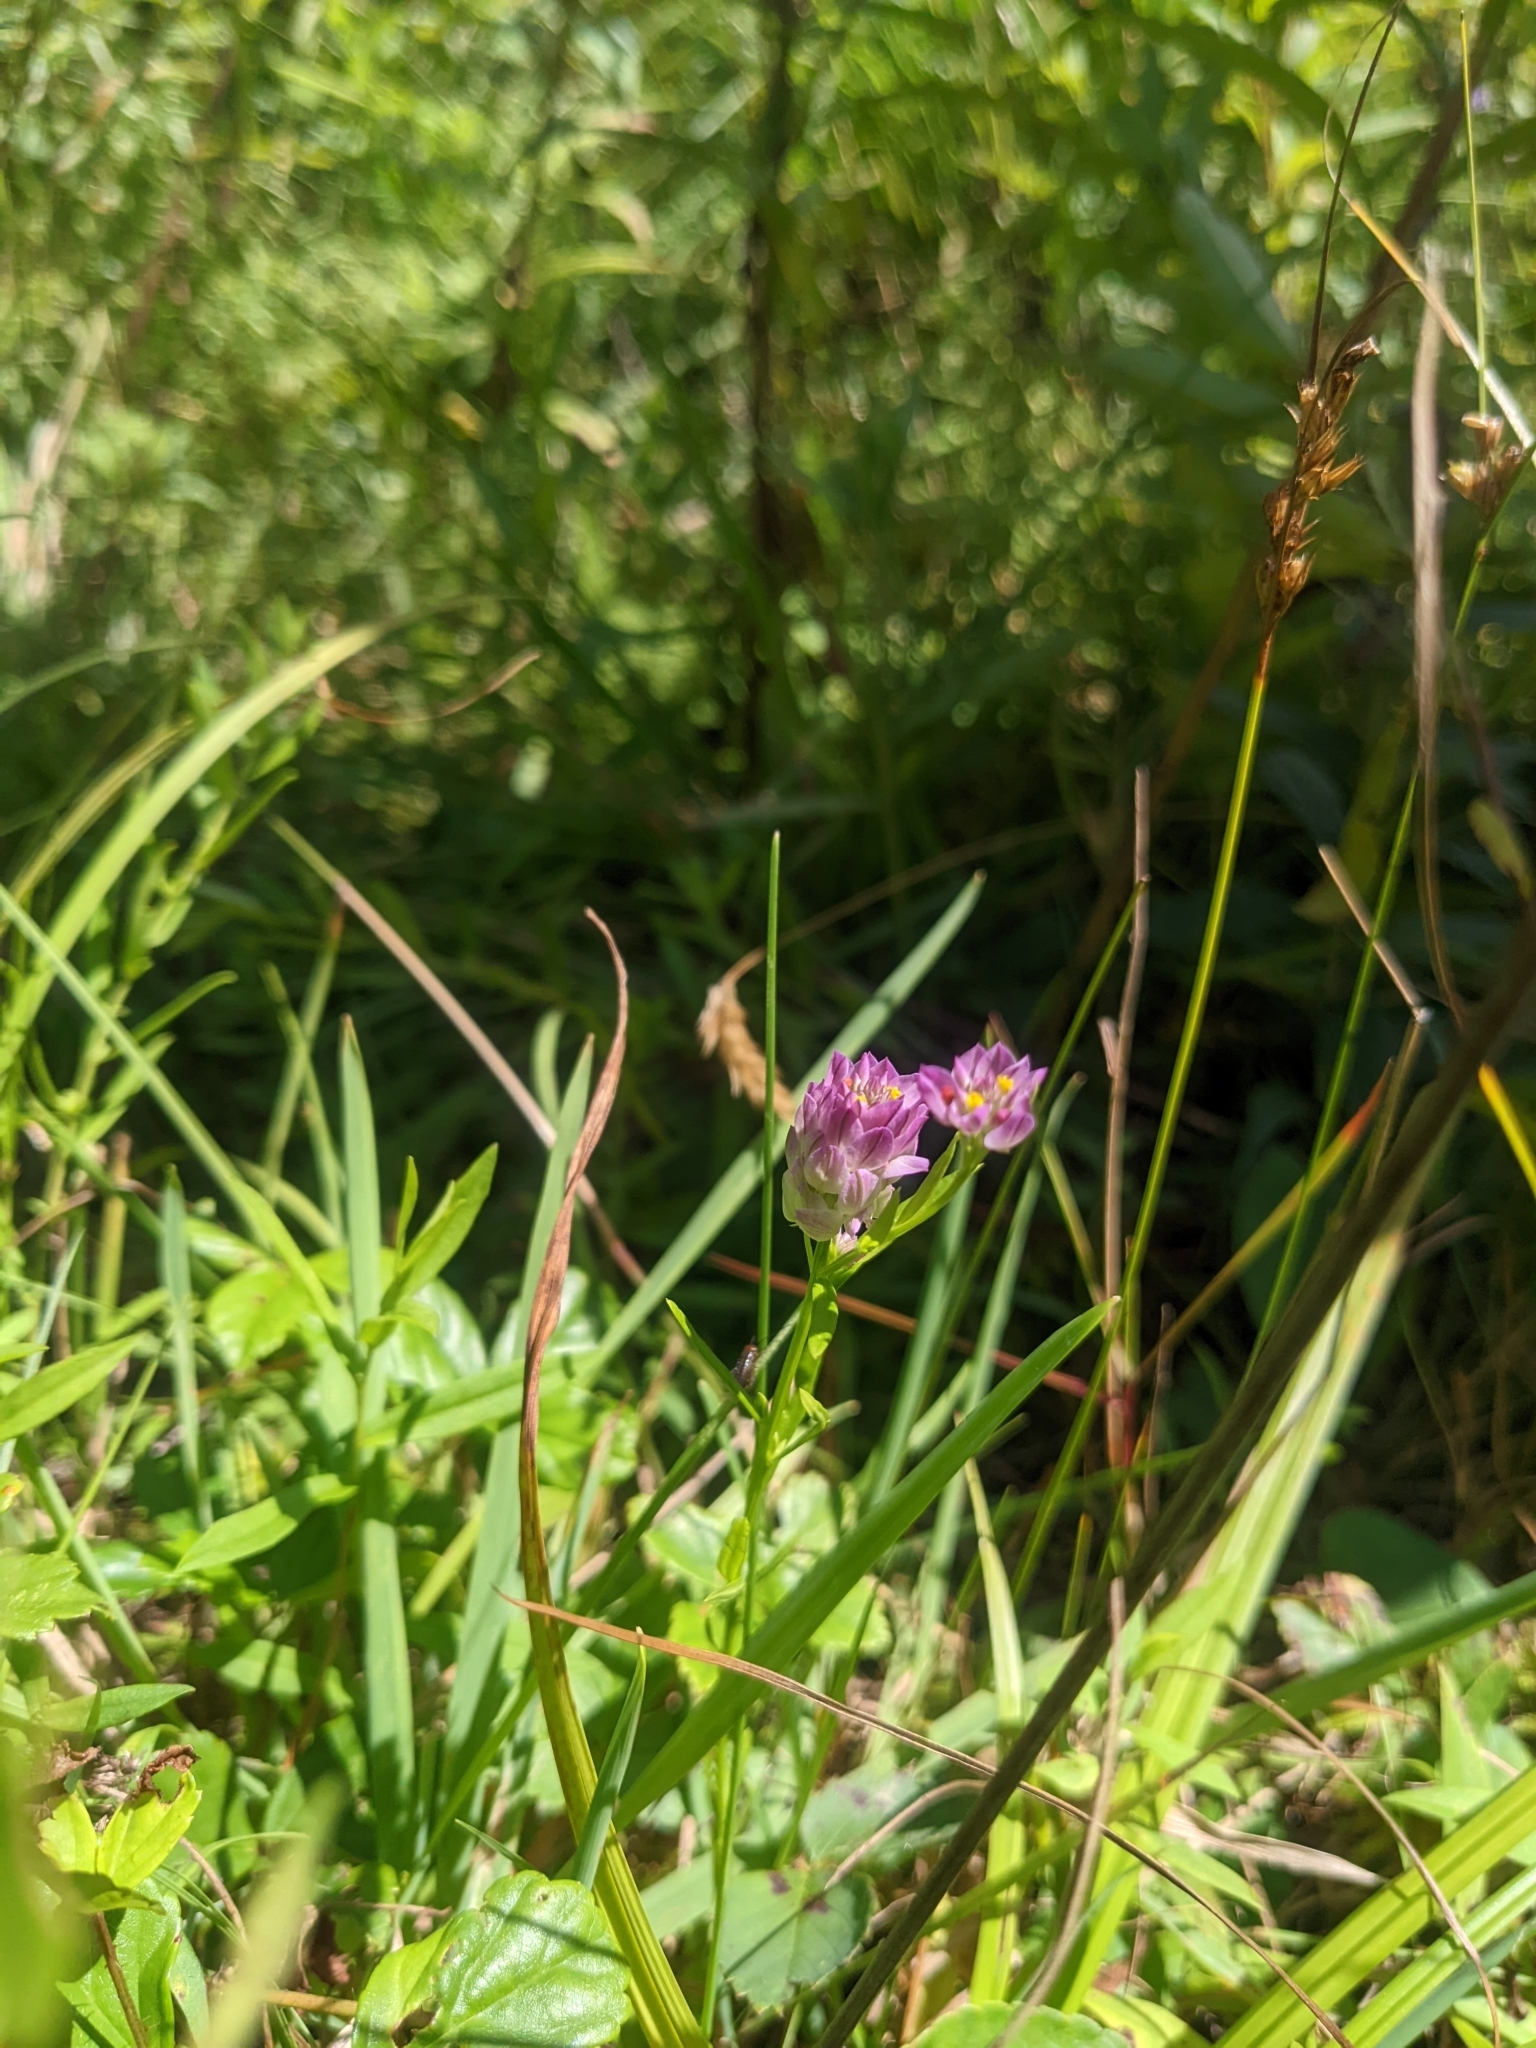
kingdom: Plantae
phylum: Tracheophyta
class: Magnoliopsida
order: Fabales
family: Polygalaceae
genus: Polygala
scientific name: Polygala sanguinea
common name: Blood milkwort
